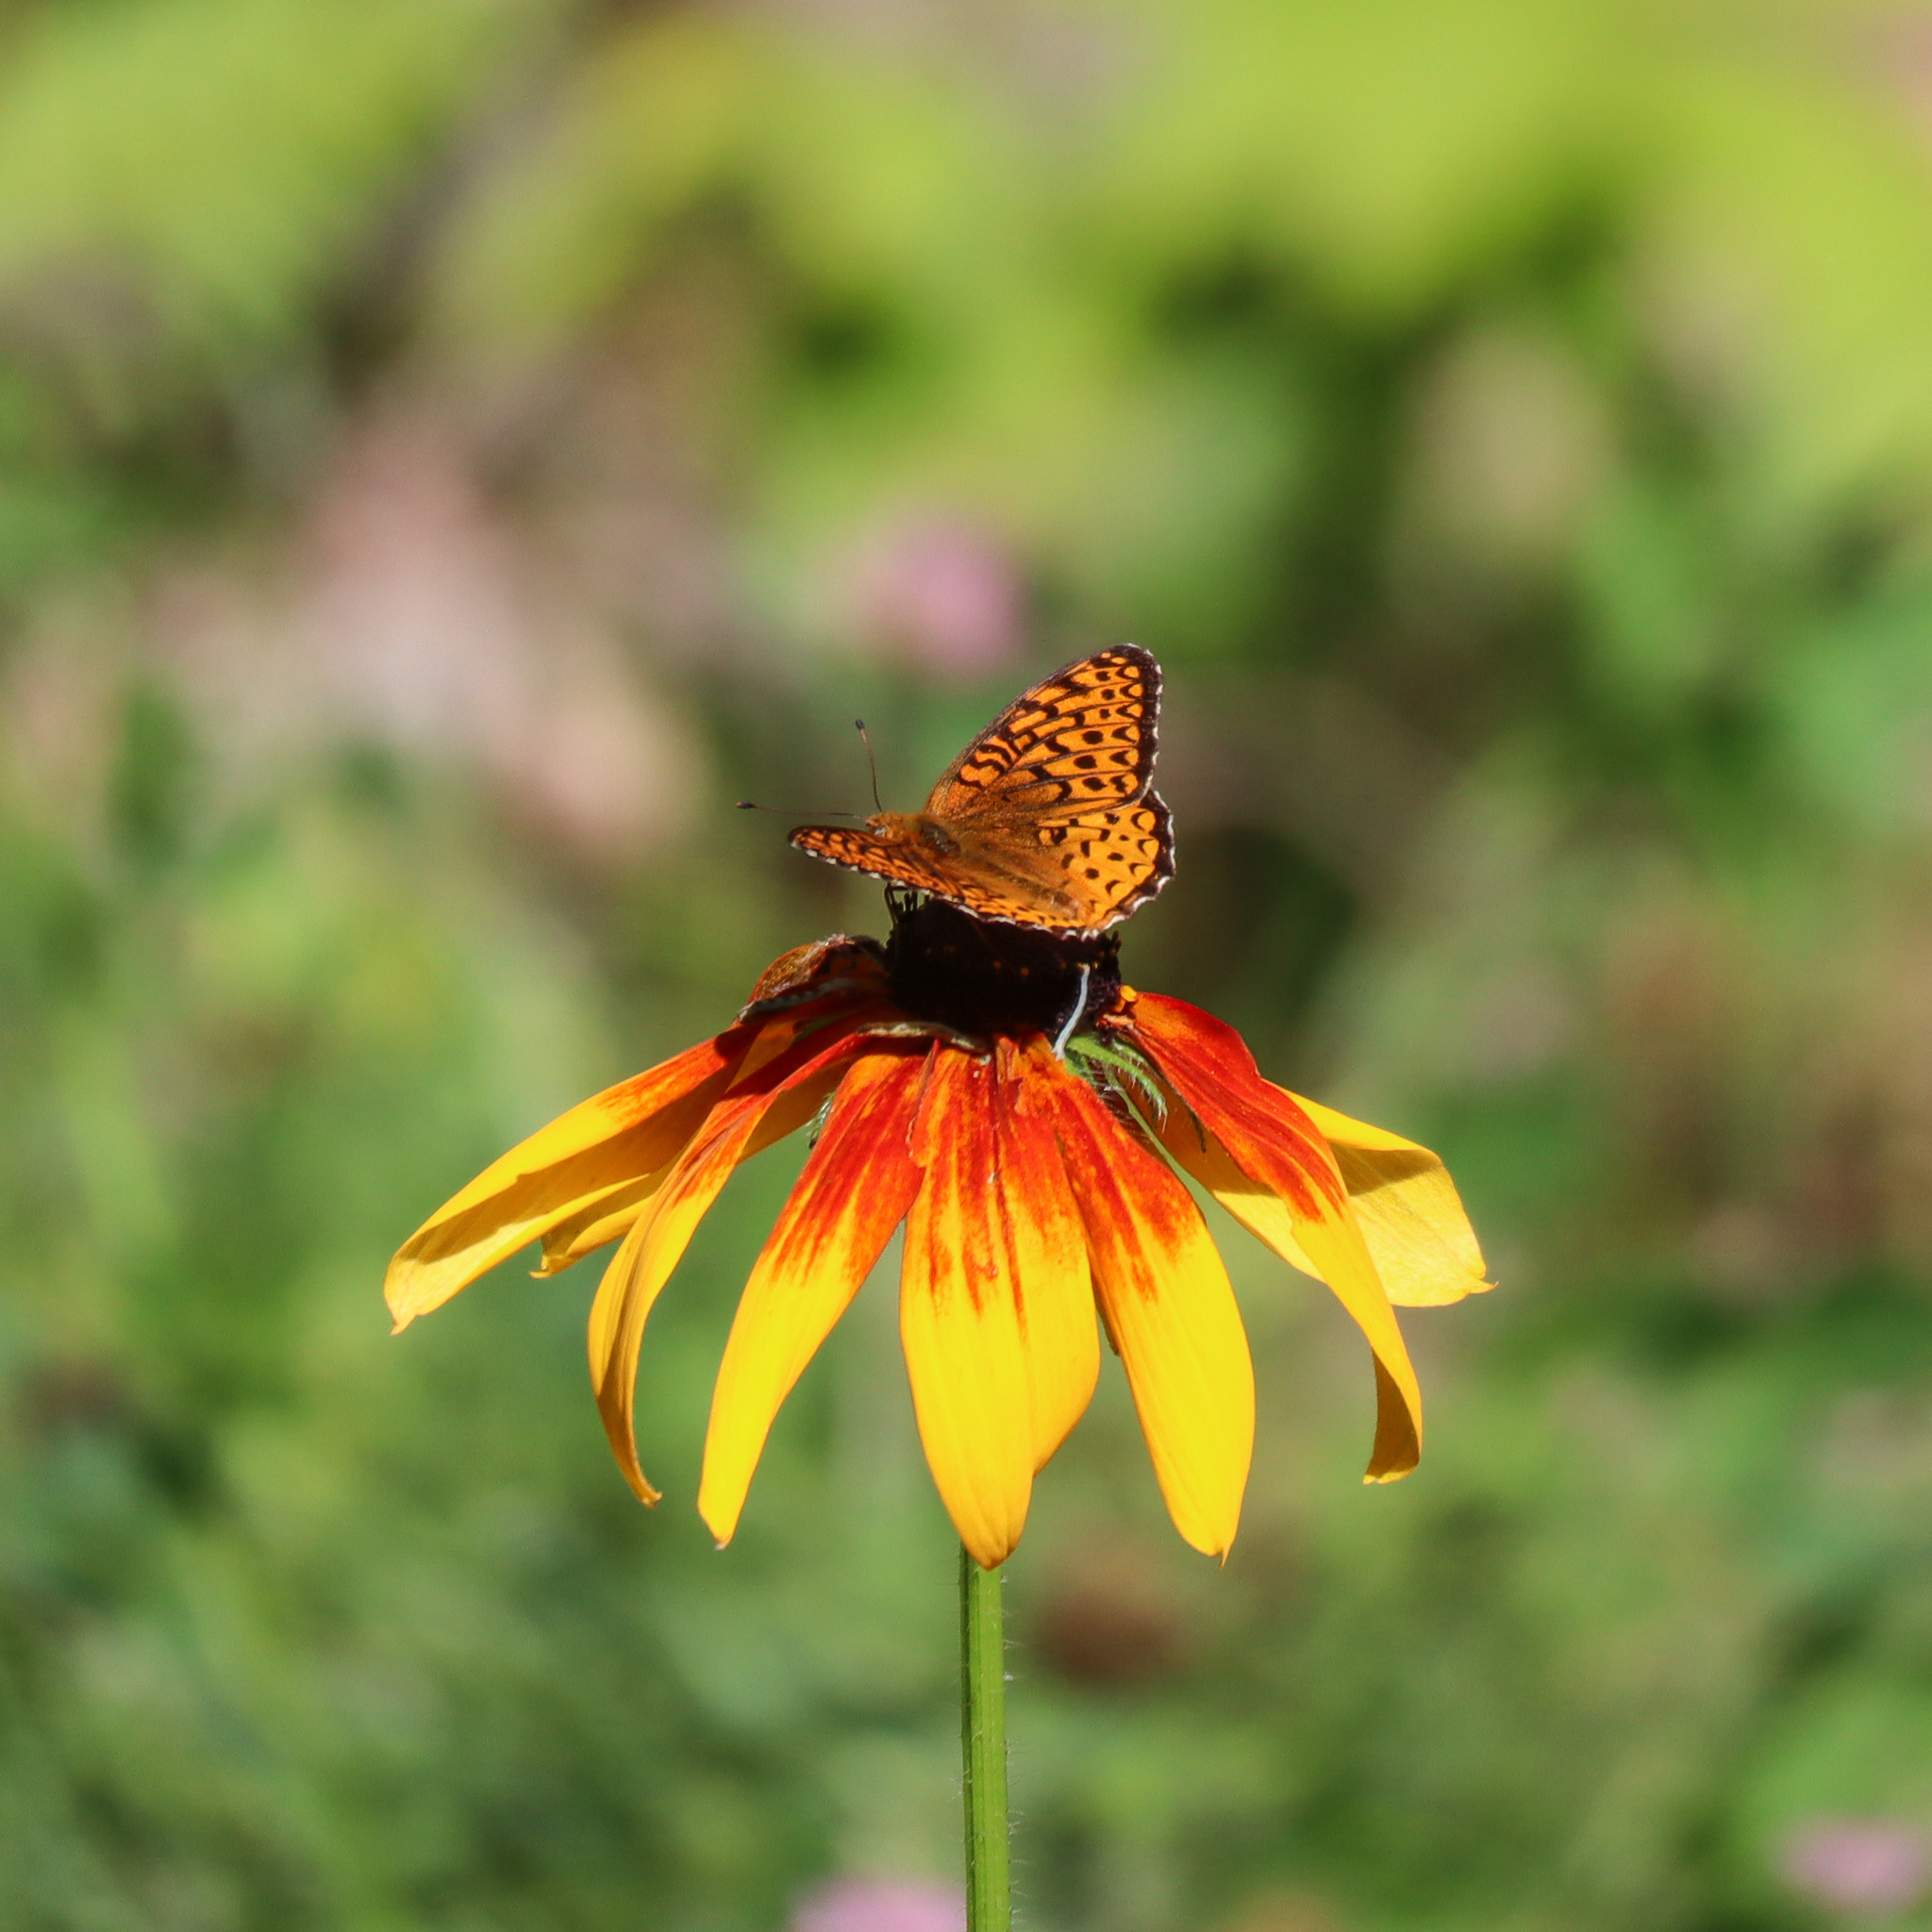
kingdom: Animalia
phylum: Arthropoda
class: Insecta
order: Lepidoptera
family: Nymphalidae
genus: Speyeria
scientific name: Speyeria atlantis
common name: Atlantis fritillary
